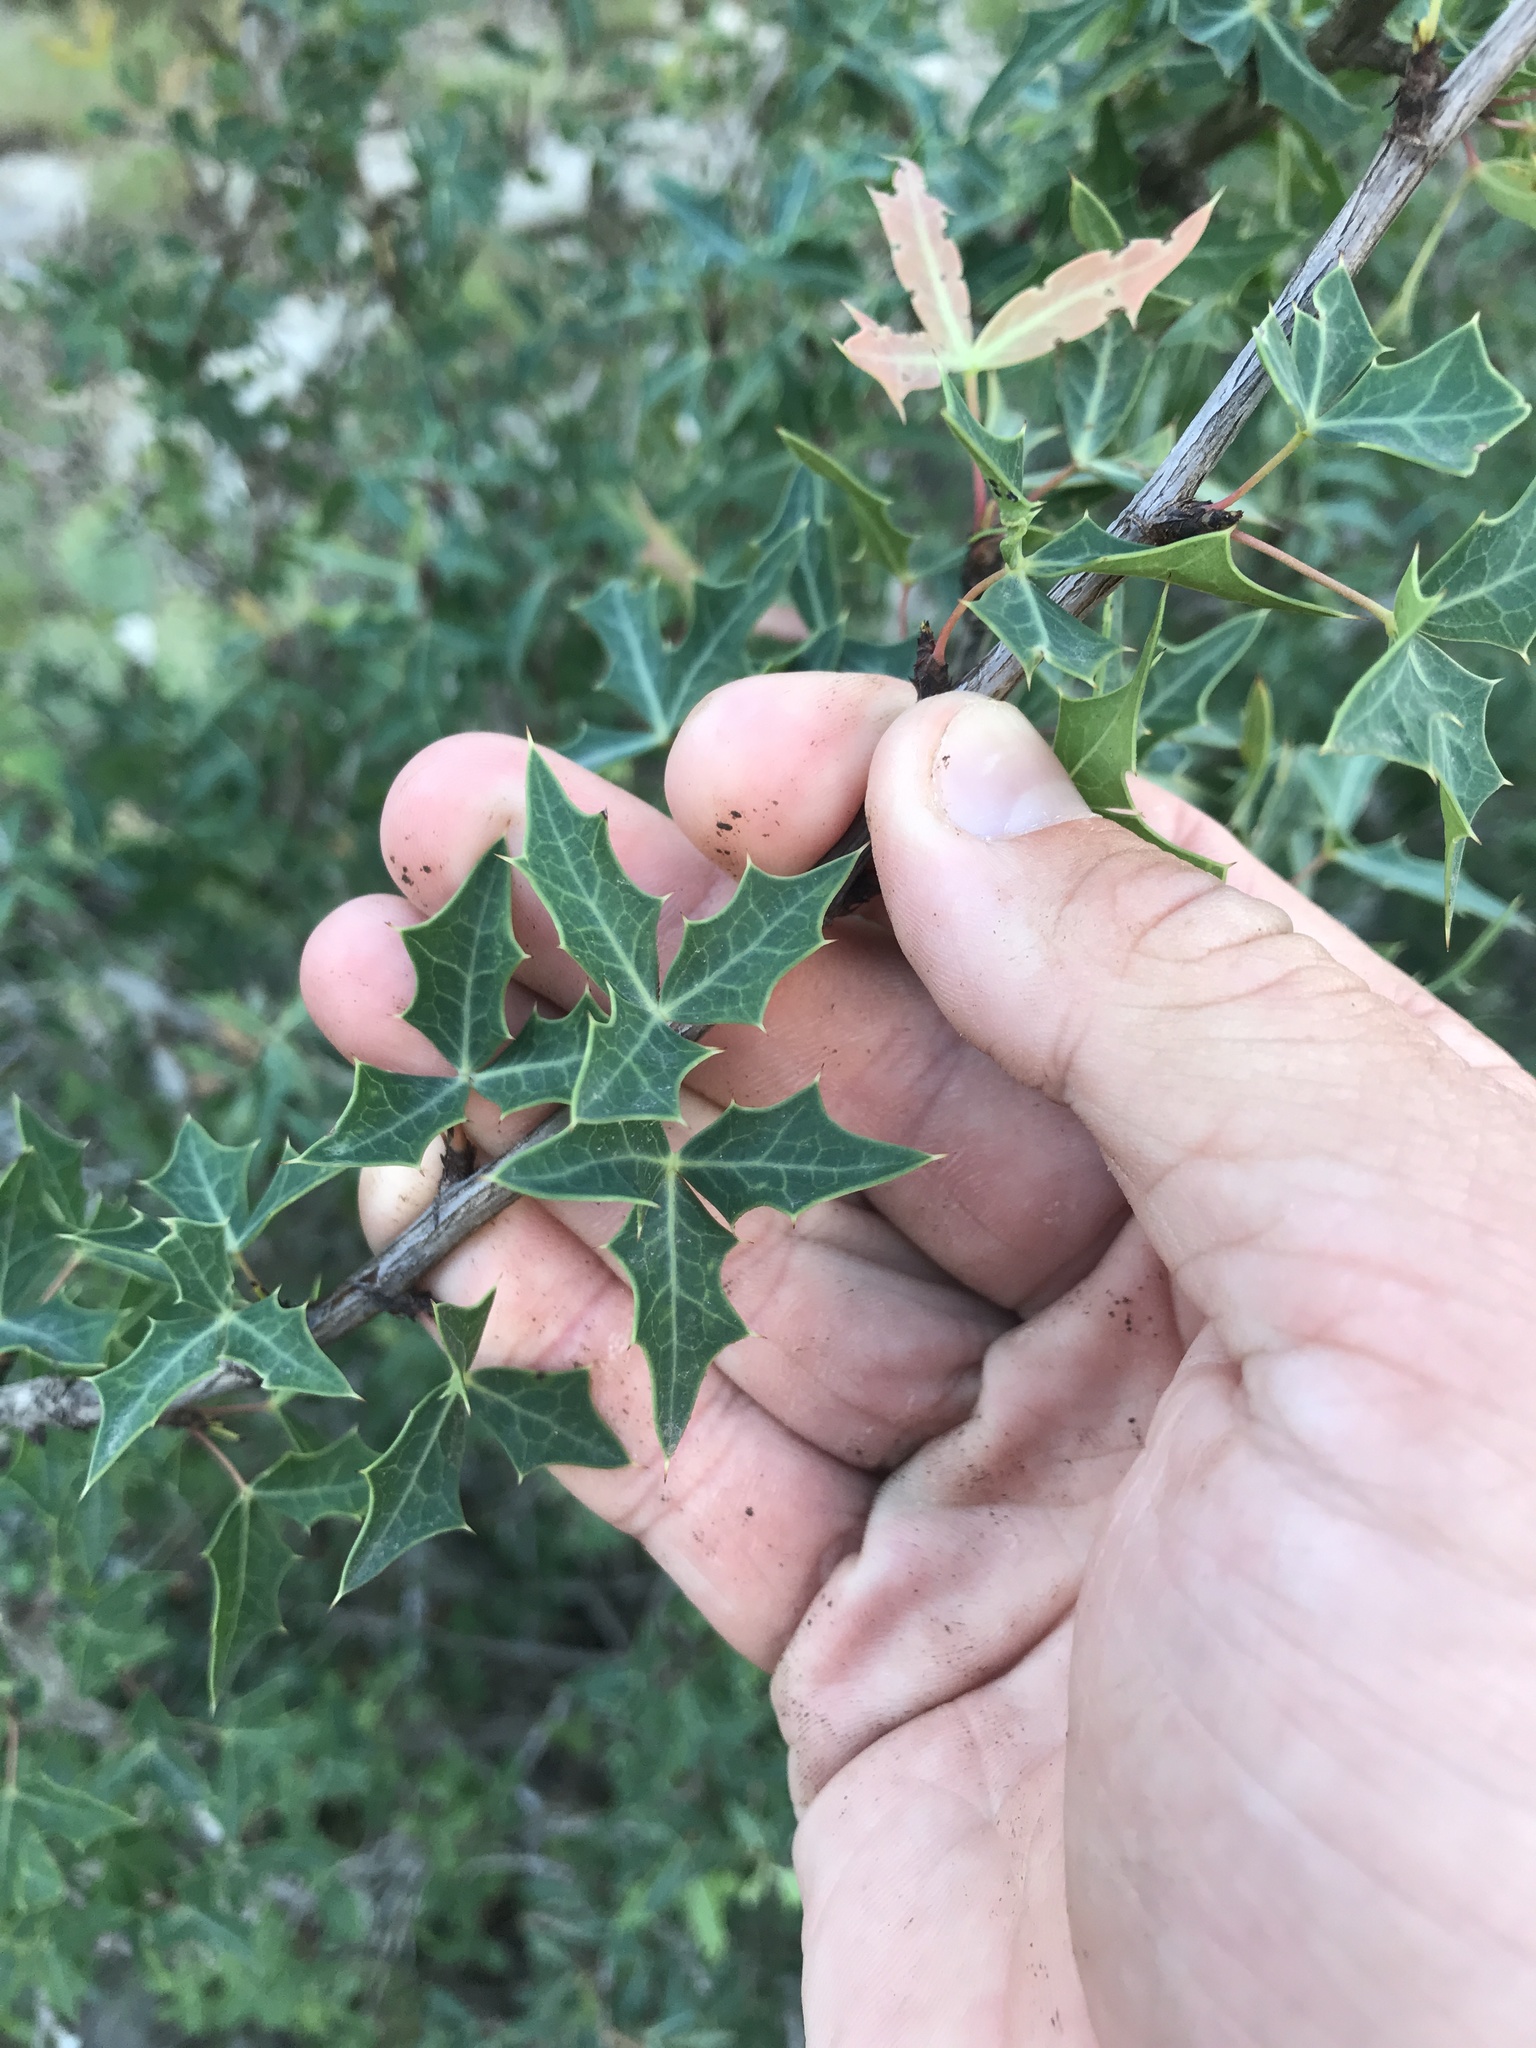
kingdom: Plantae
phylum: Tracheophyta
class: Magnoliopsida
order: Ranunculales
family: Berberidaceae
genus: Alloberberis
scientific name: Alloberberis trifoliolata
